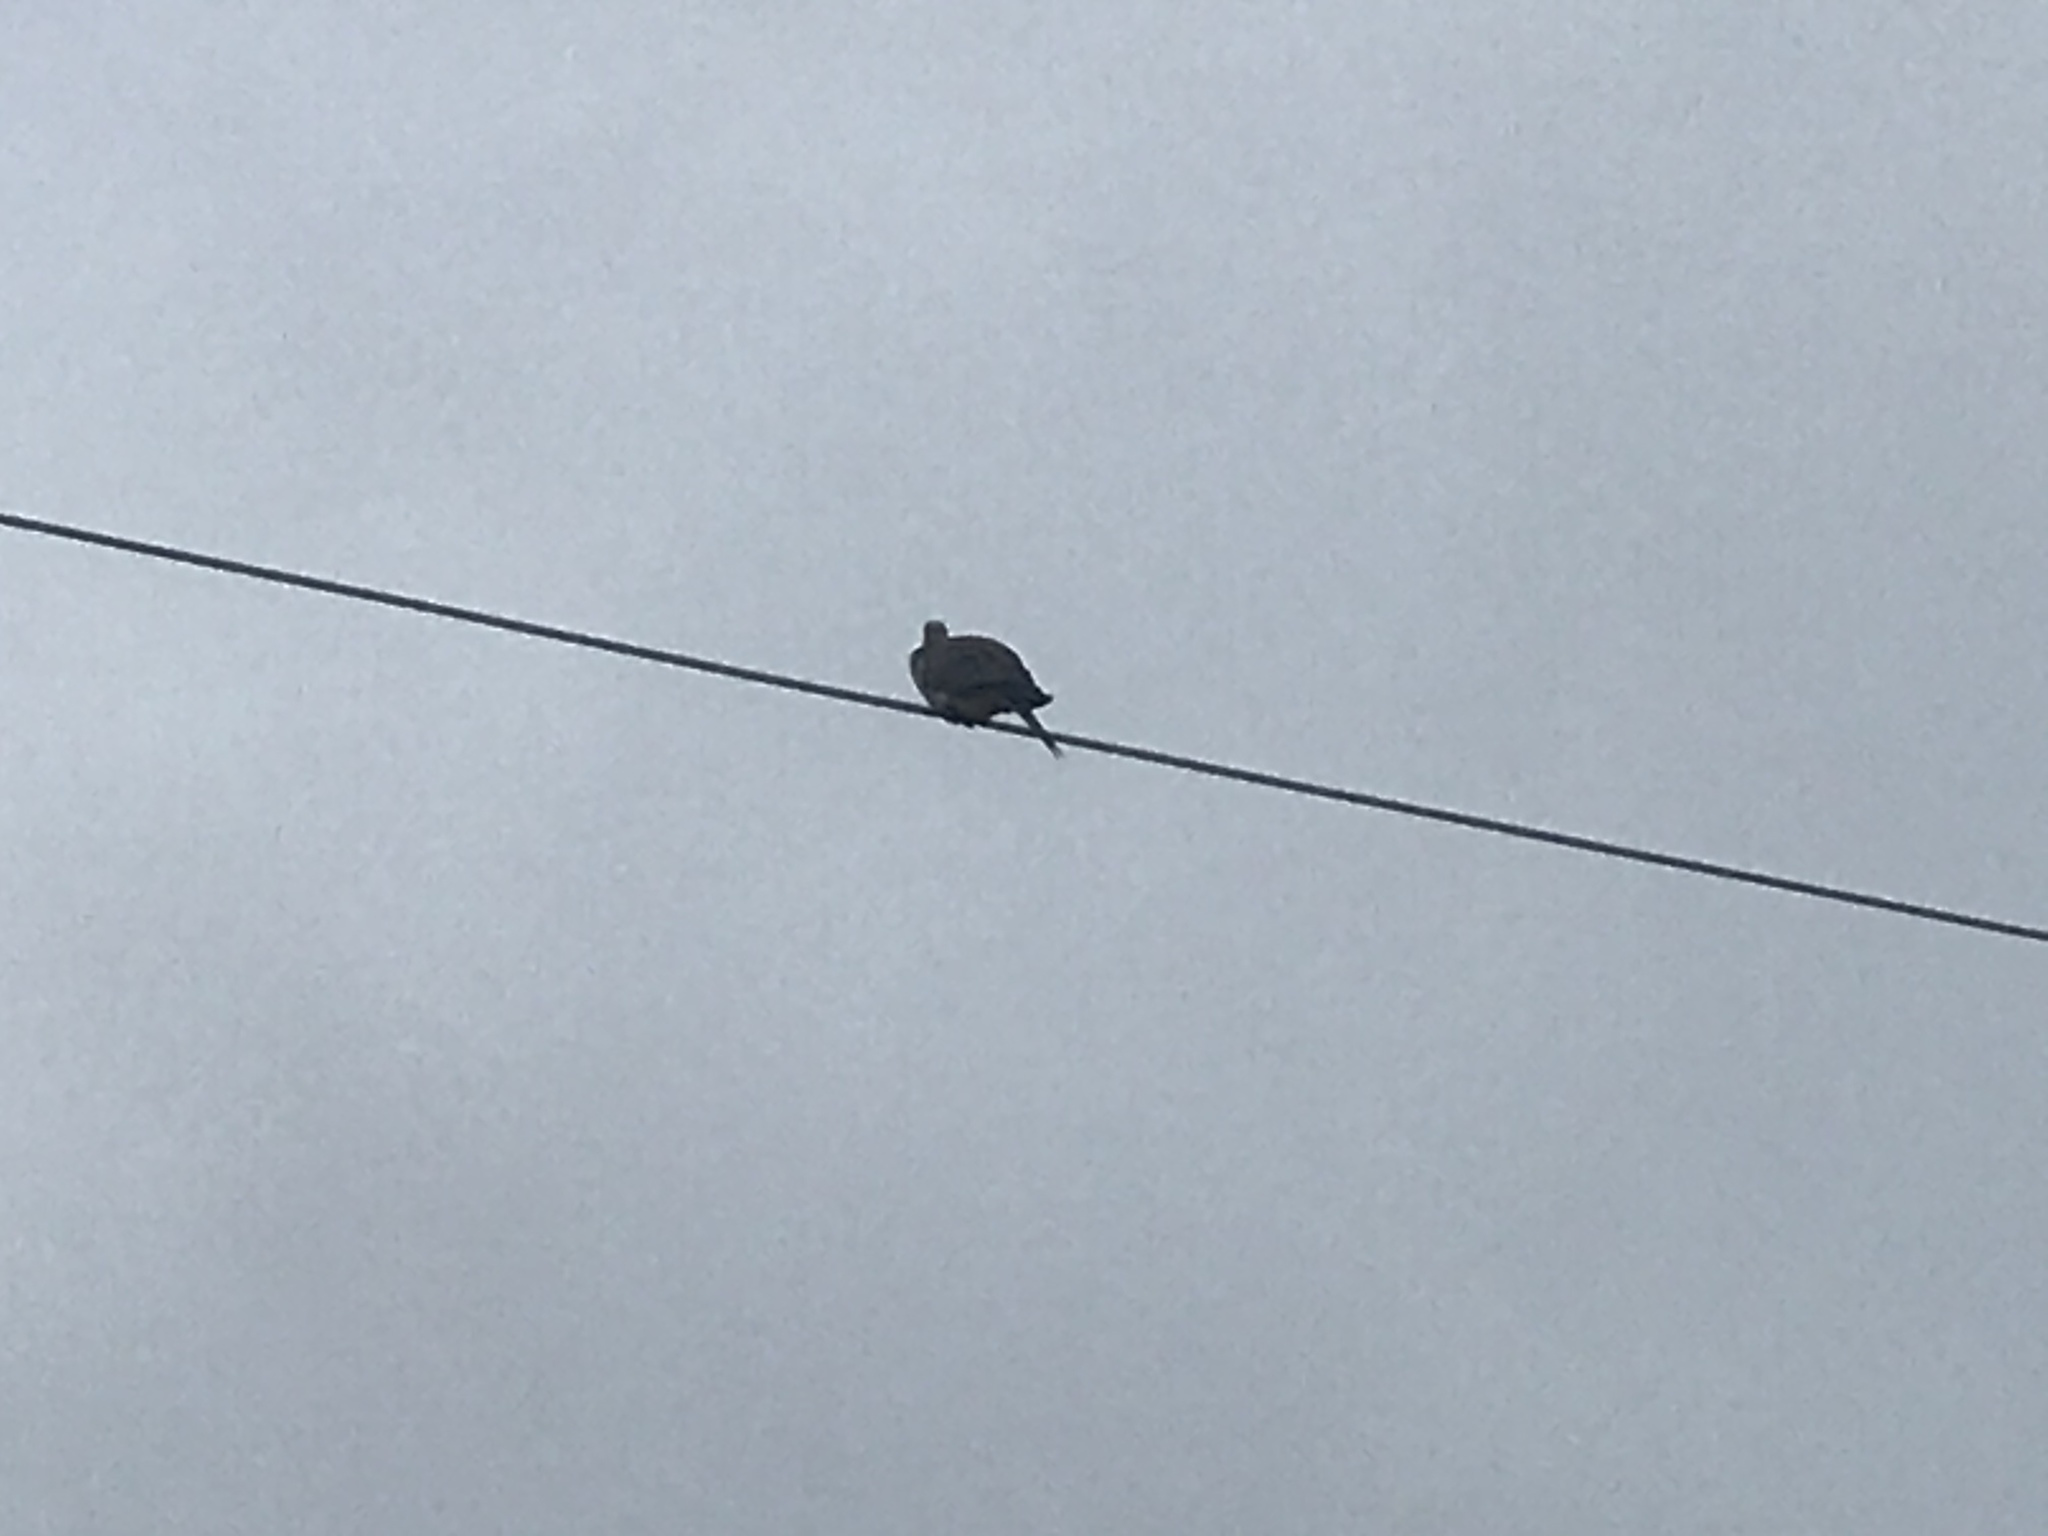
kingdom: Animalia
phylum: Chordata
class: Aves
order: Columbiformes
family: Columbidae
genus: Zenaida
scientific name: Zenaida macroura
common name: Mourning dove
